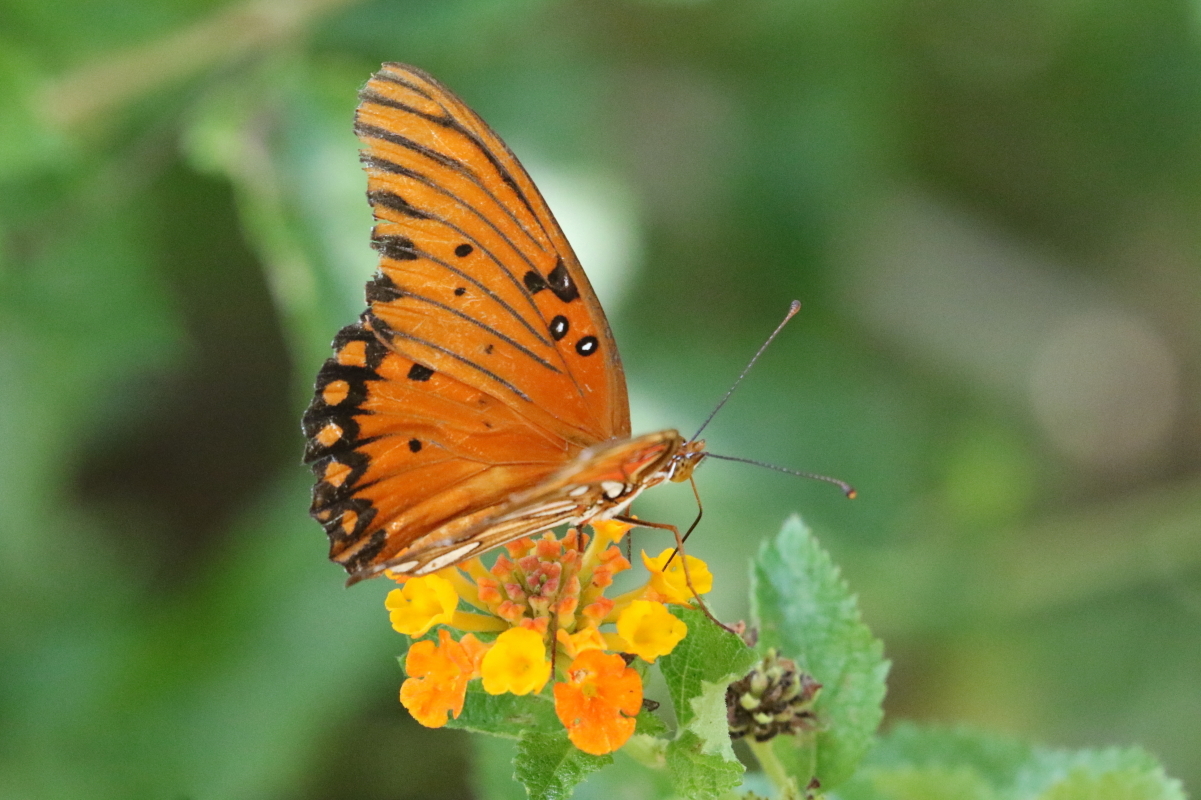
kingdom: Animalia
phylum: Arthropoda
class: Insecta
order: Lepidoptera
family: Nymphalidae
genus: Dione
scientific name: Dione vanillae
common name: Gulf fritillary
